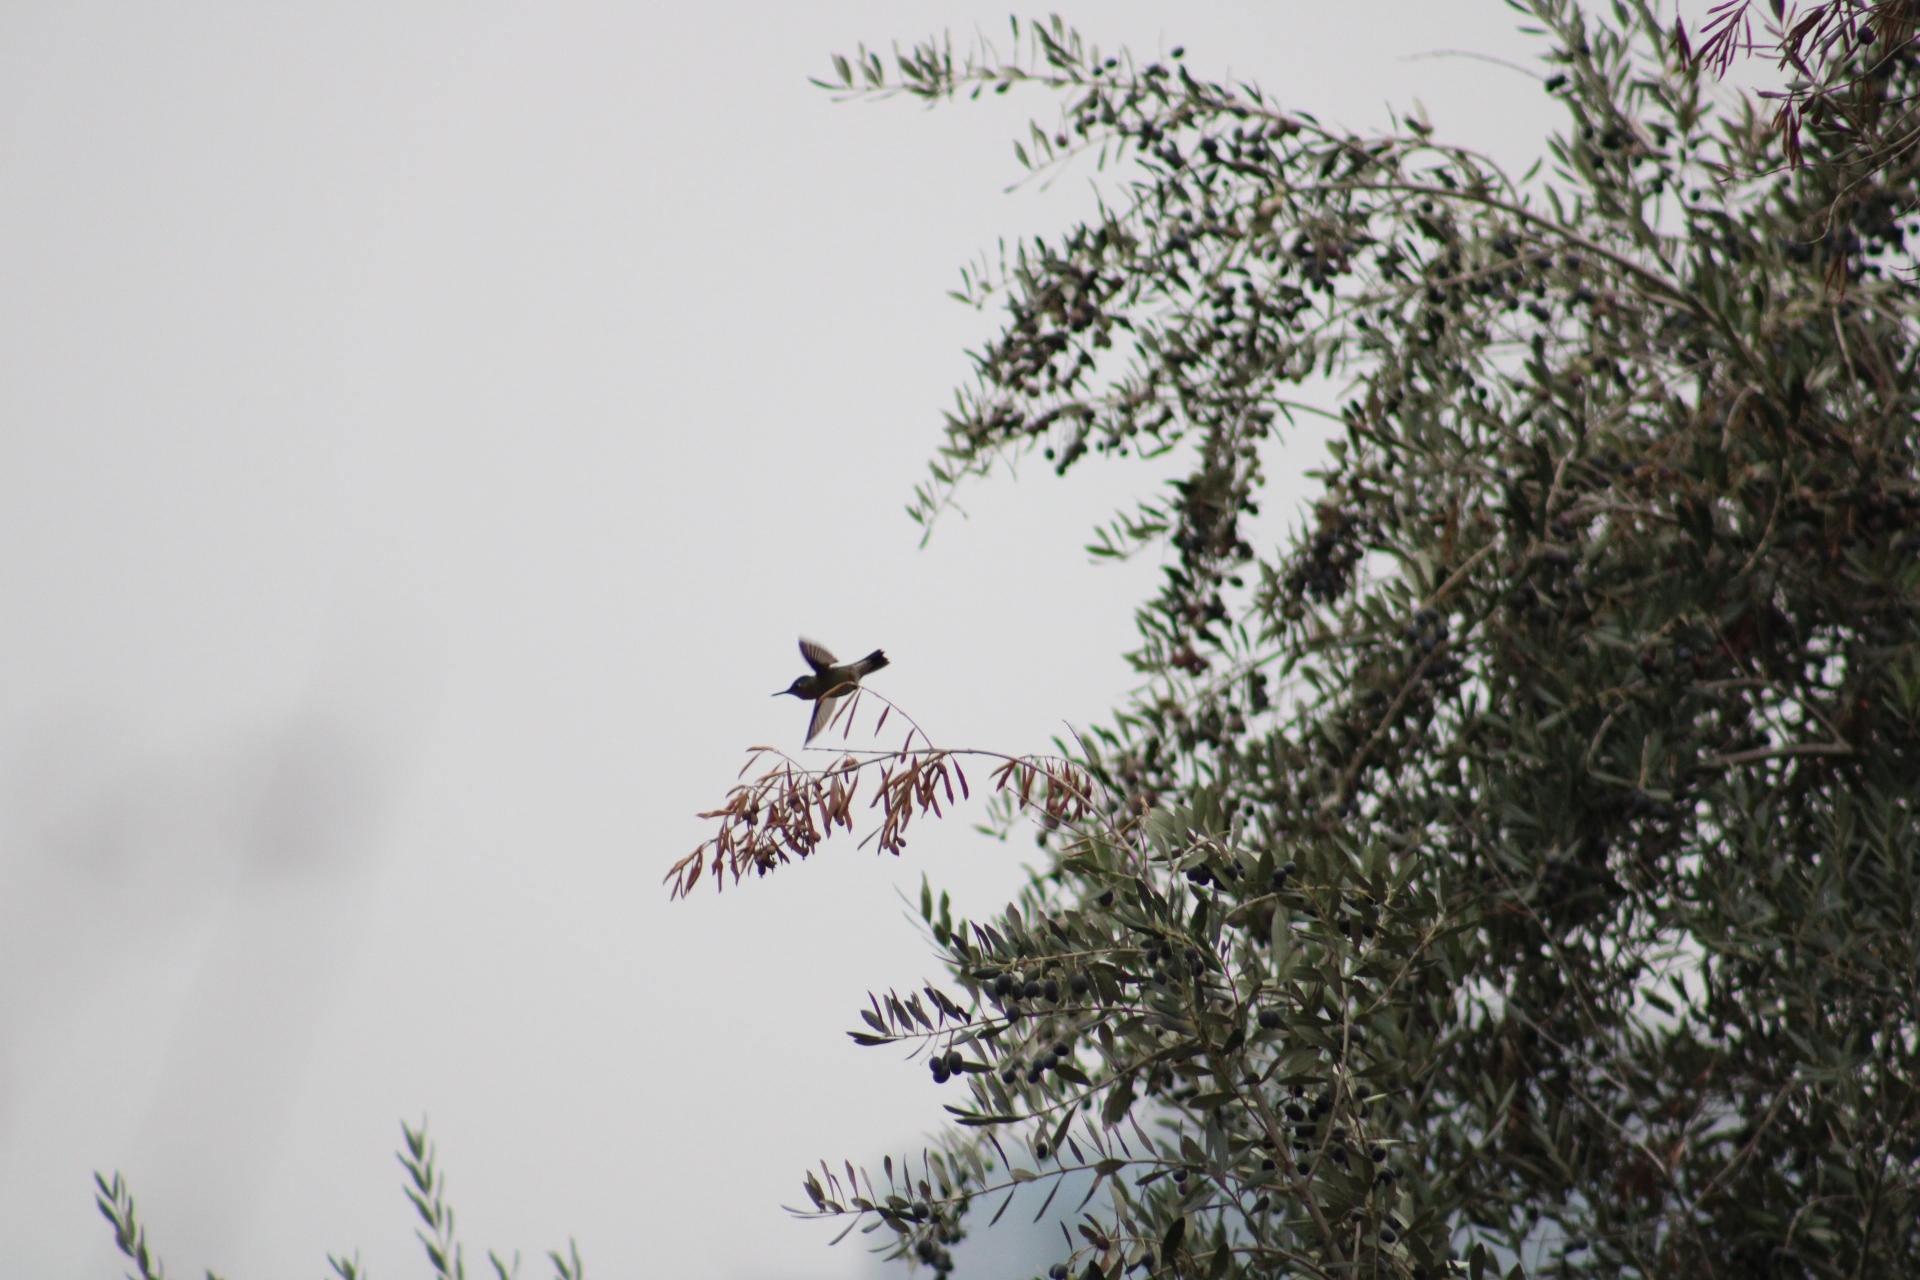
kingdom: Animalia
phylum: Chordata
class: Aves
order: Apodiformes
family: Trochilidae
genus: Sephanoides
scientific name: Sephanoides sephaniodes
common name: Green-backed firecrown
